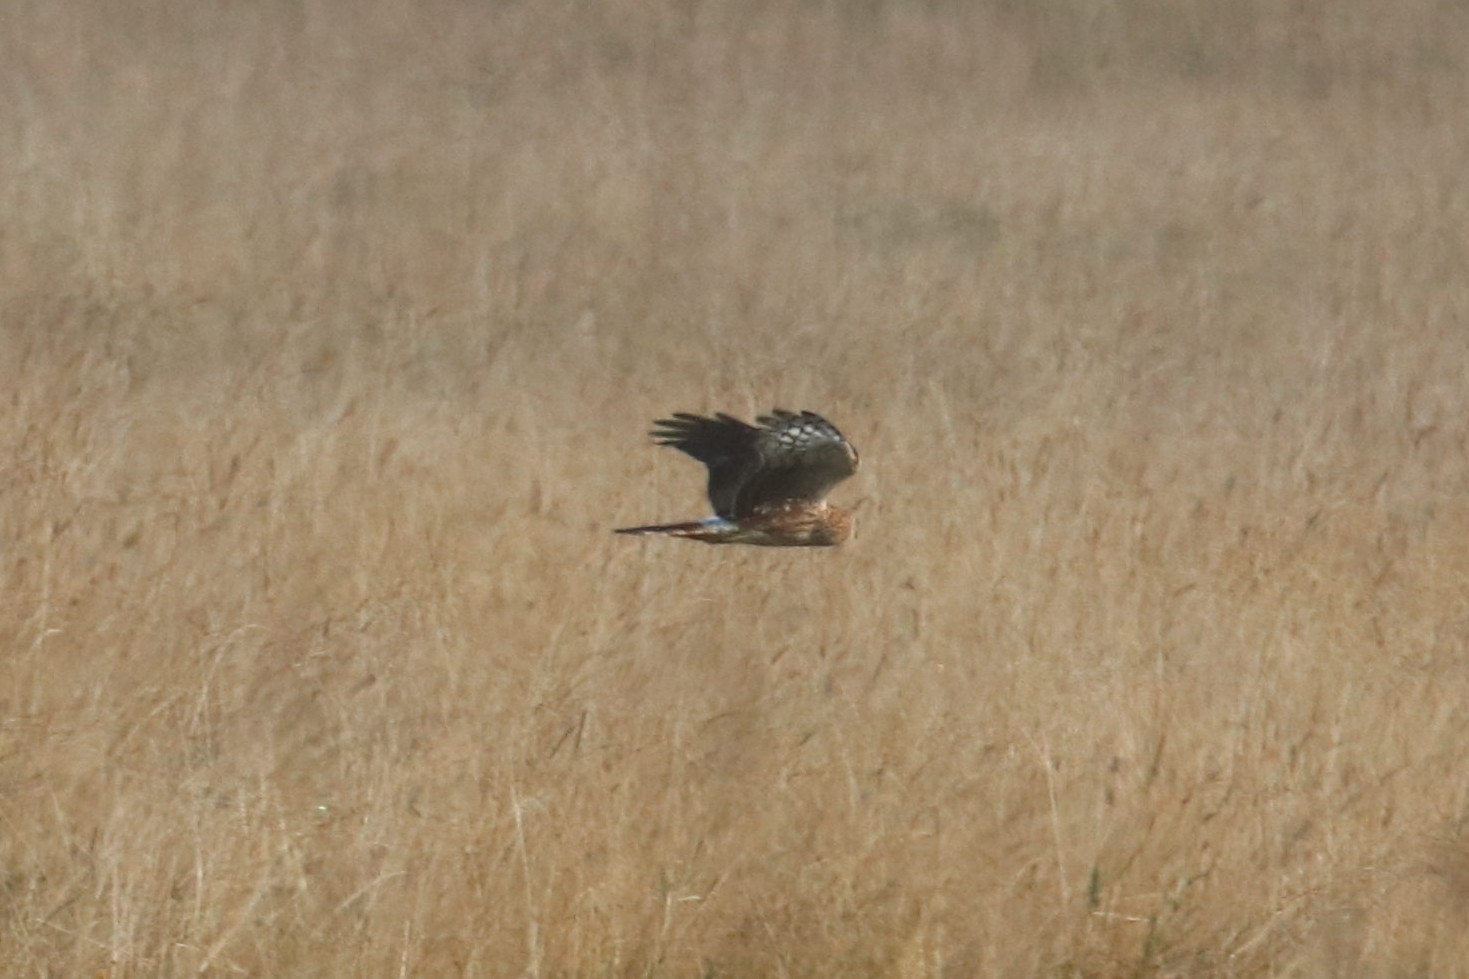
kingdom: Animalia
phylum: Chordata
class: Aves
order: Accipitriformes
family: Accipitridae
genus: Circus
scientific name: Circus cyaneus
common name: Hen harrier
